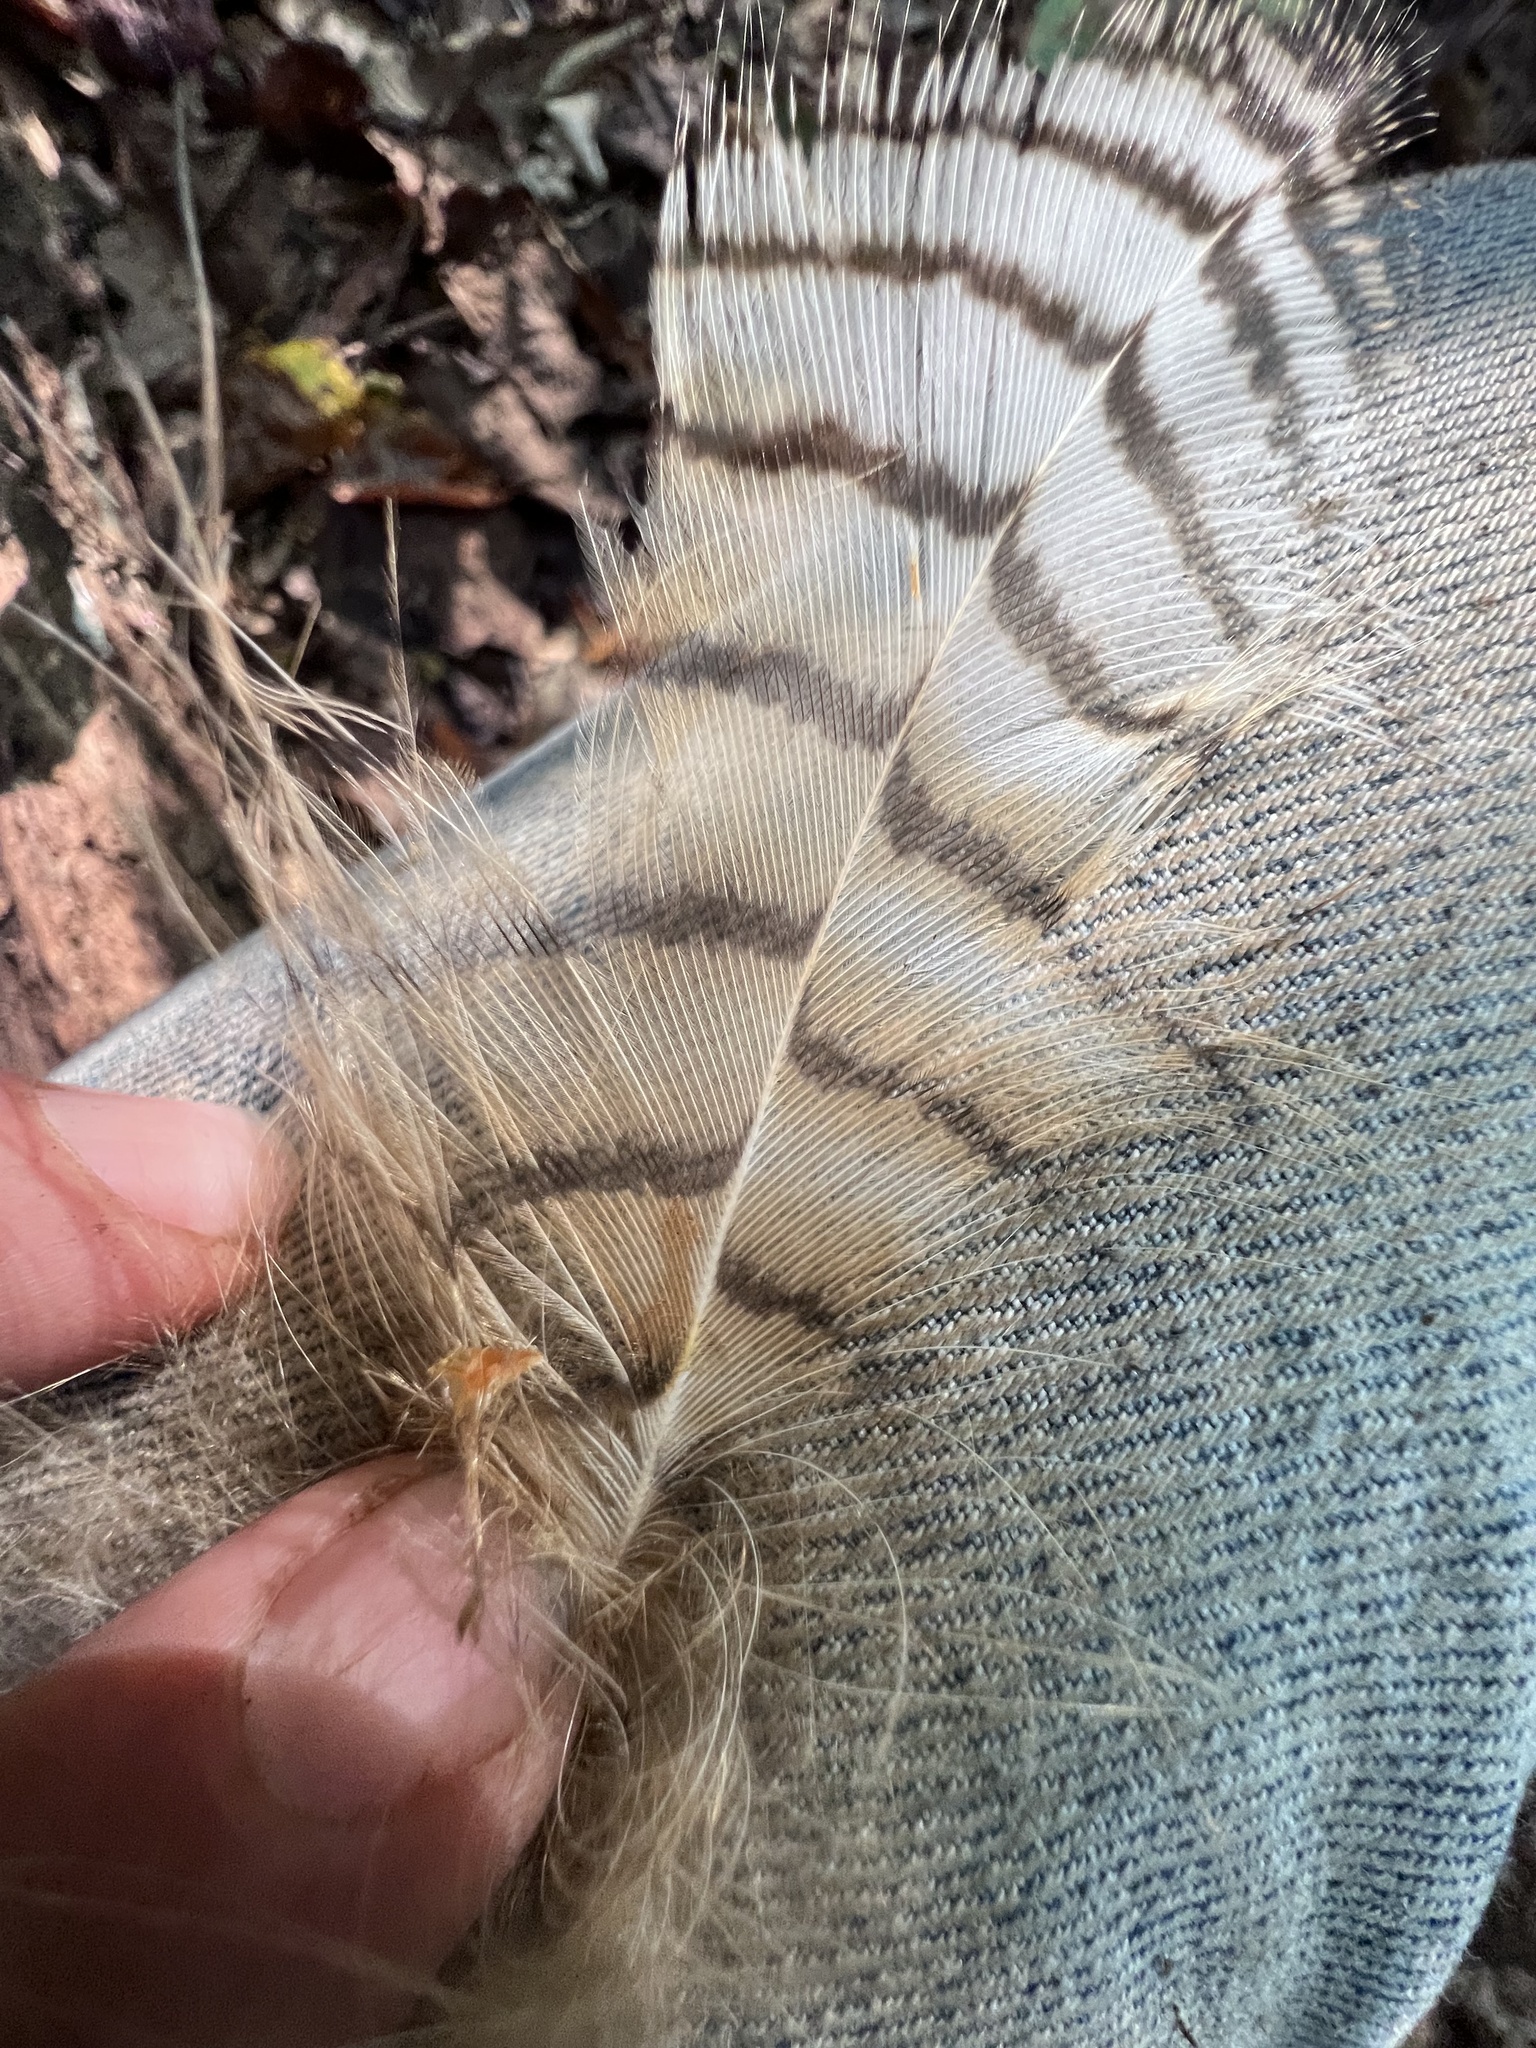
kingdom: Animalia
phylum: Chordata
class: Aves
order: Strigiformes
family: Strigidae
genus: Bubo
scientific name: Bubo virginianus
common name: Great horned owl
